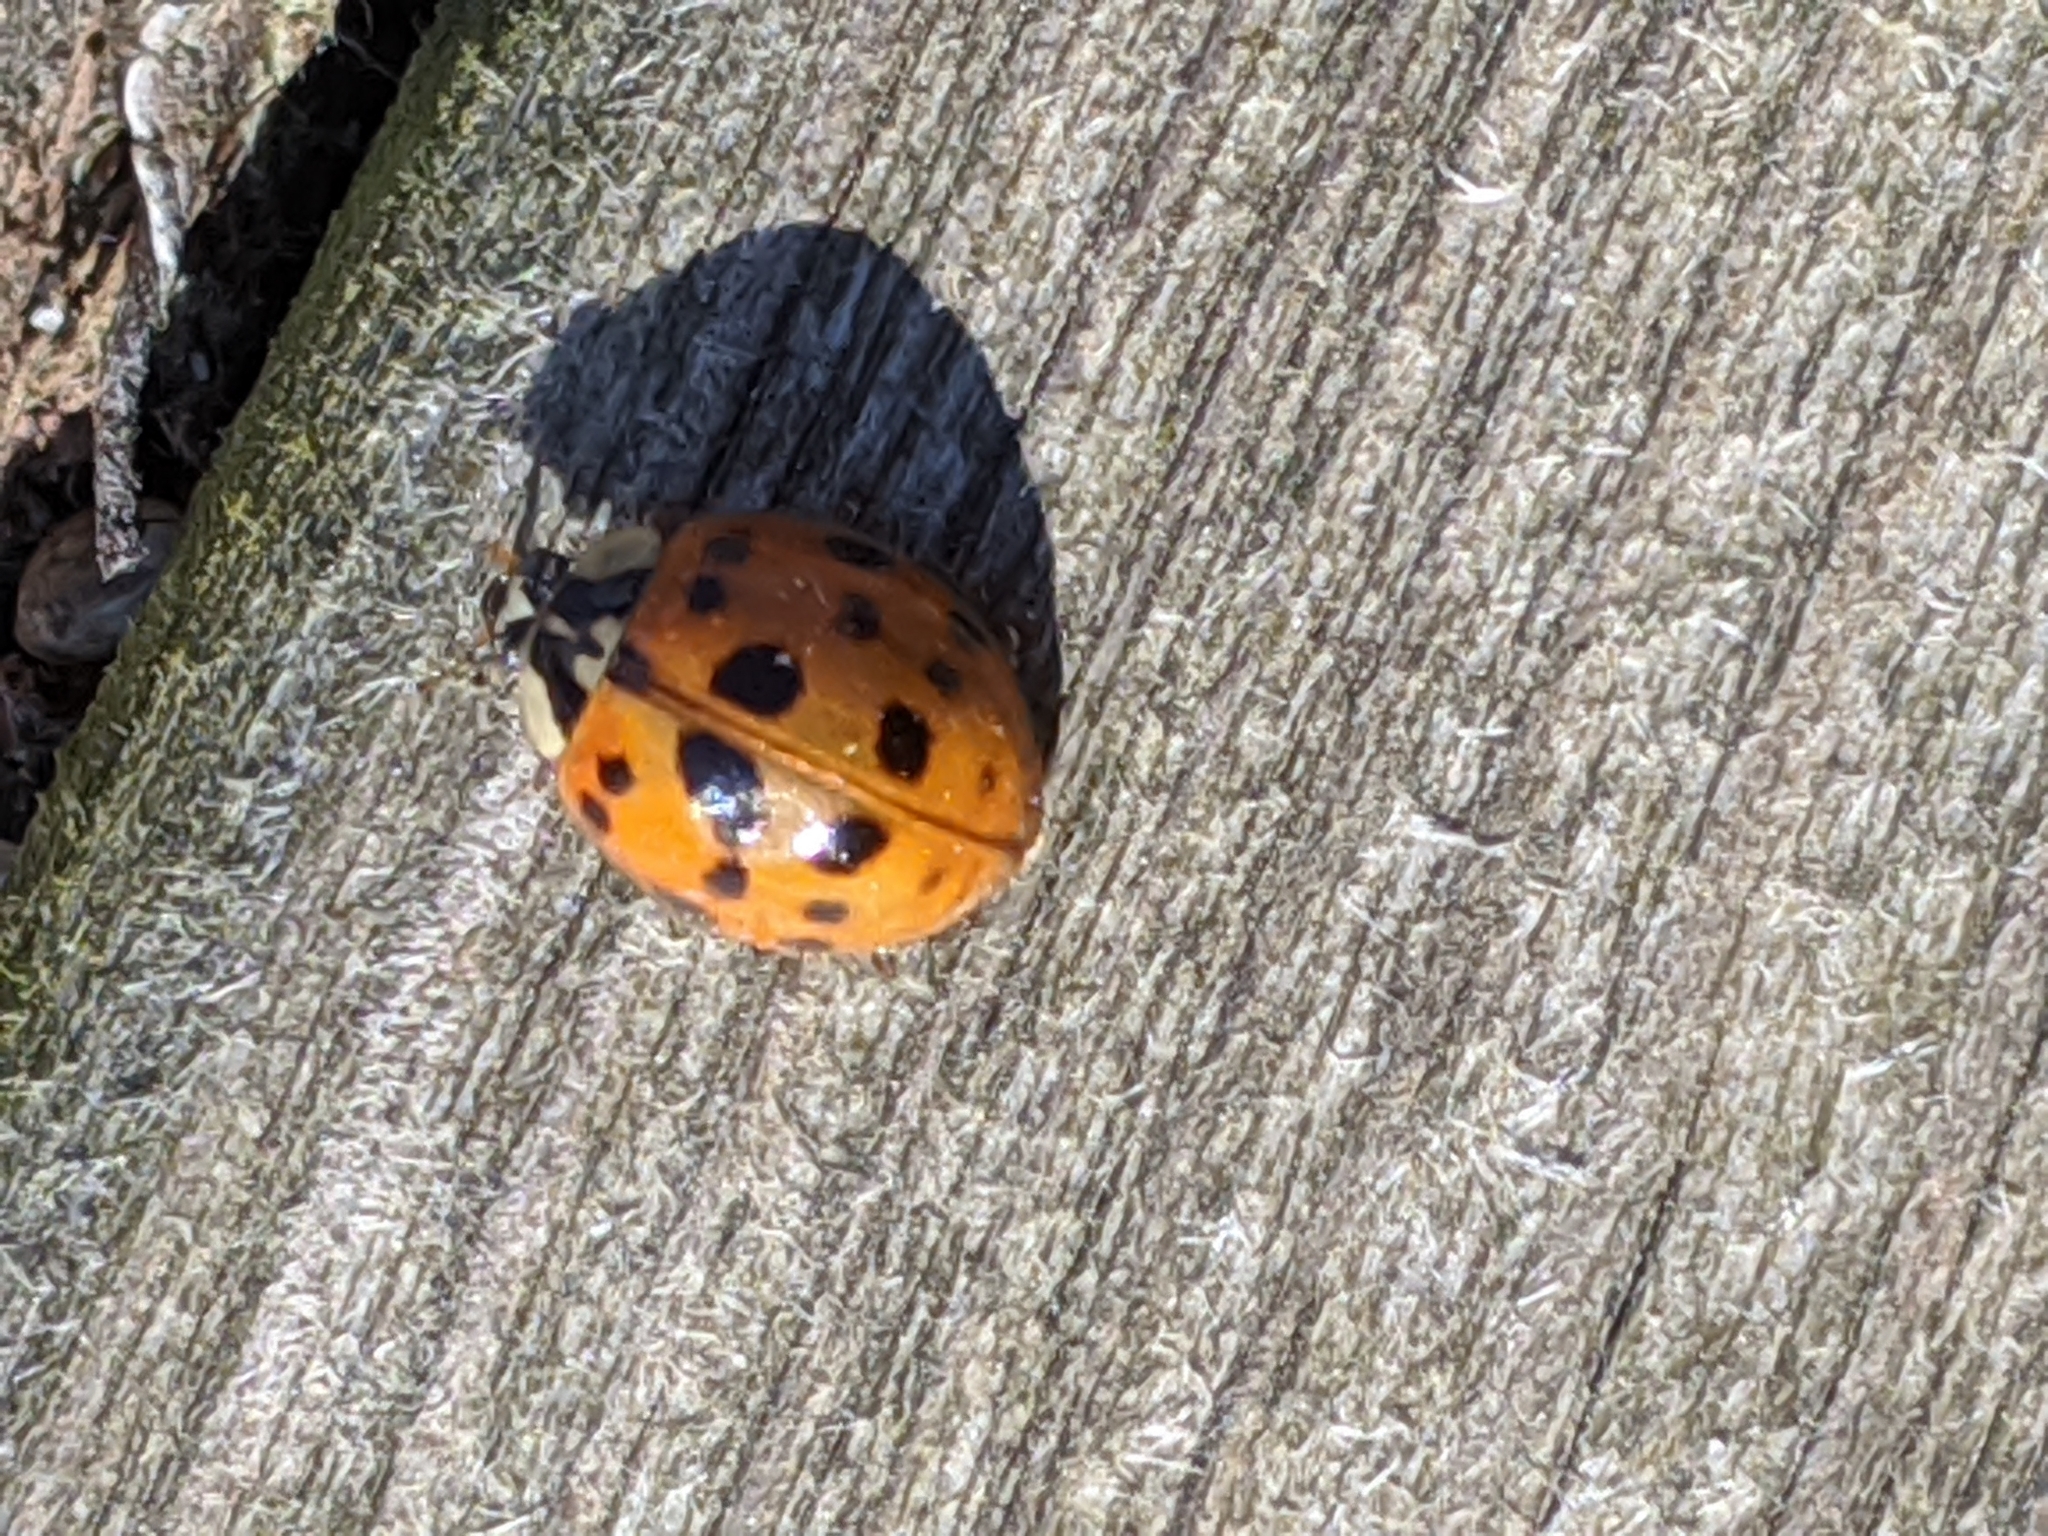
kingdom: Animalia
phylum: Arthropoda
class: Insecta
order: Coleoptera
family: Coccinellidae
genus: Harmonia
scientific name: Harmonia axyridis
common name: Harlequin ladybird
